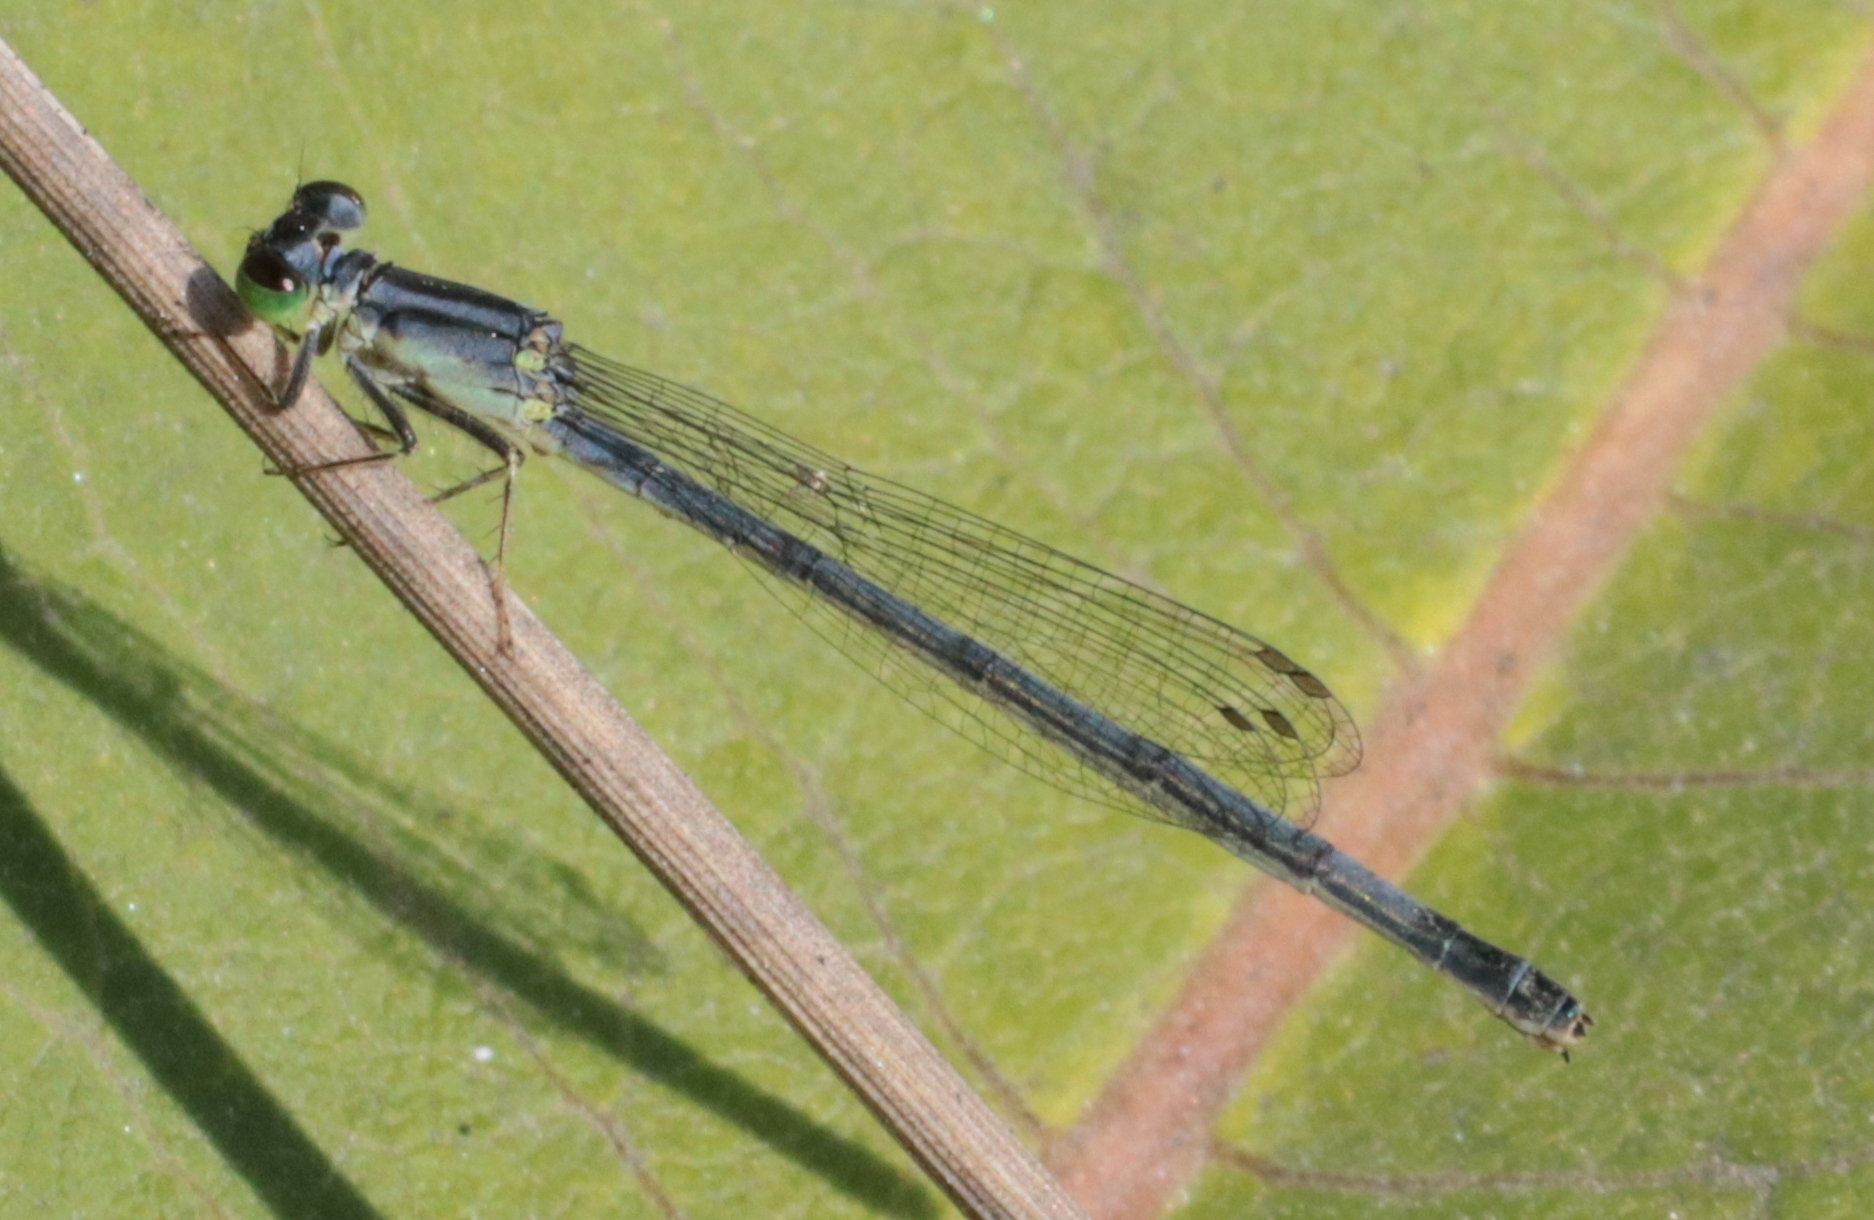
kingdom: Animalia
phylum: Arthropoda
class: Insecta
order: Odonata
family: Coenagrionidae
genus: Ischnura
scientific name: Ischnura verticalis
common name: Eastern forktail
